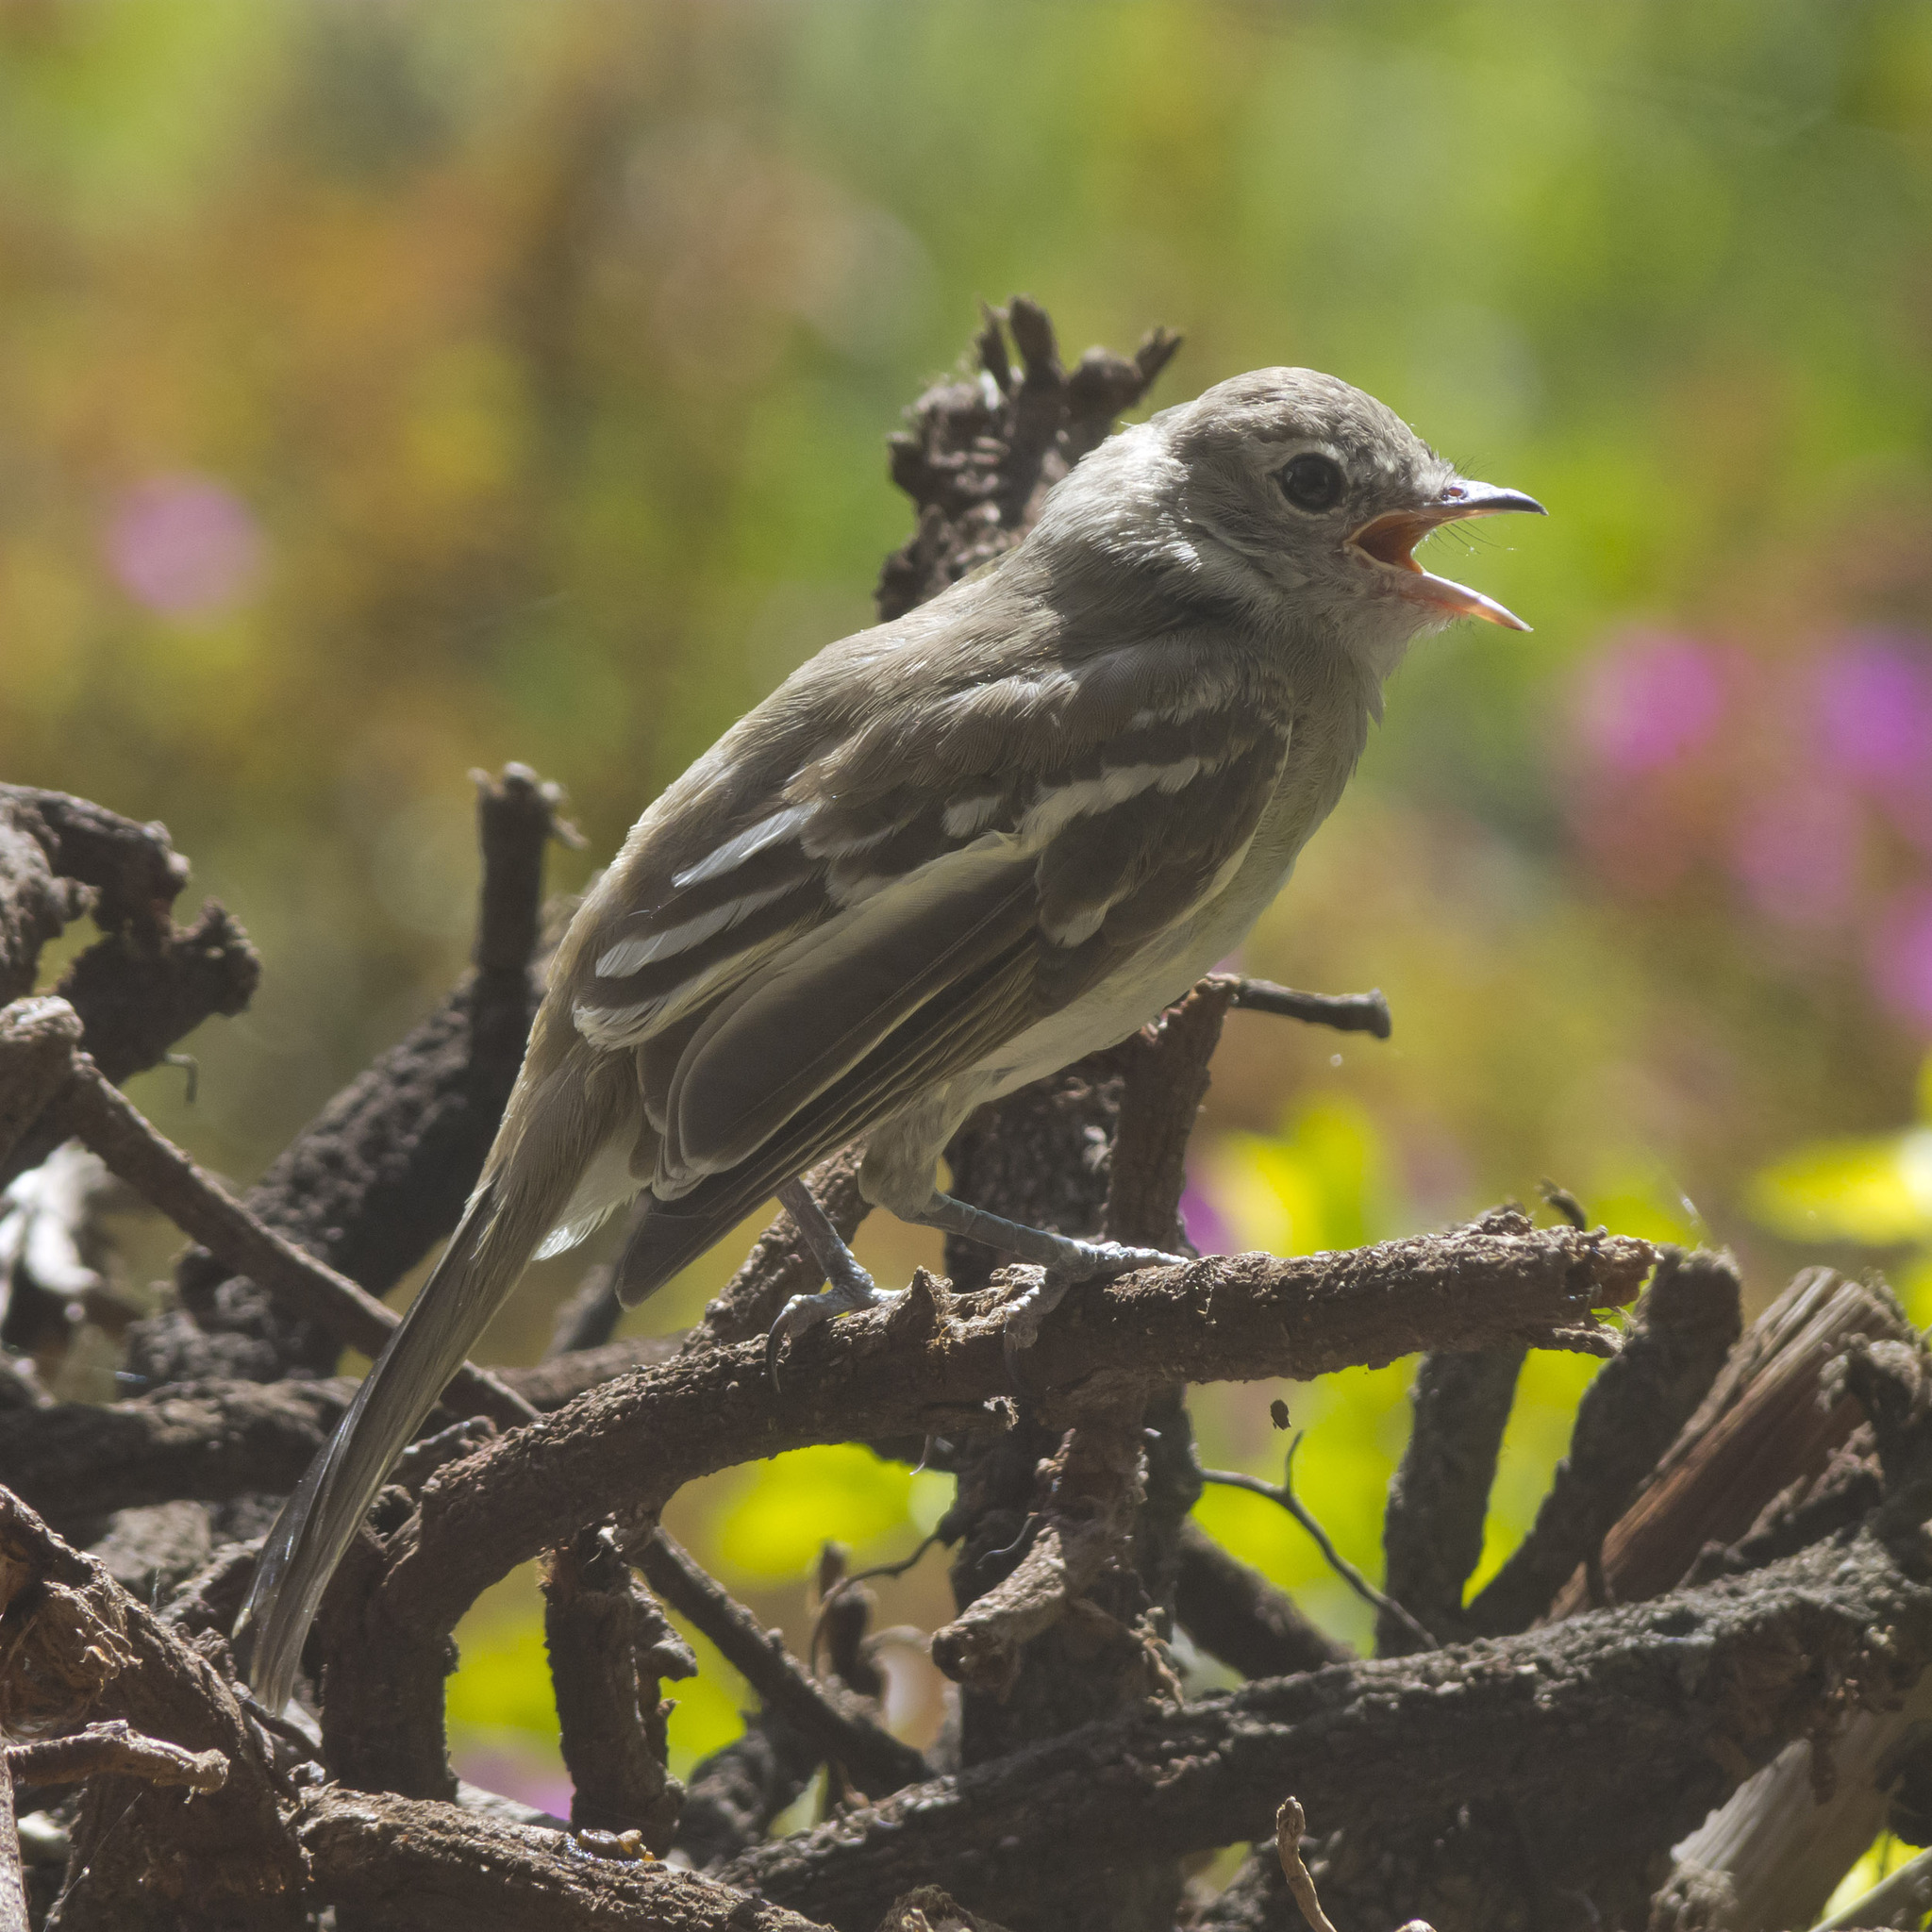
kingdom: Animalia
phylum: Chordata
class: Aves
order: Passeriformes
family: Tyrannidae
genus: Elaenia
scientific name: Elaenia frantzii
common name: Mountain elaenia
